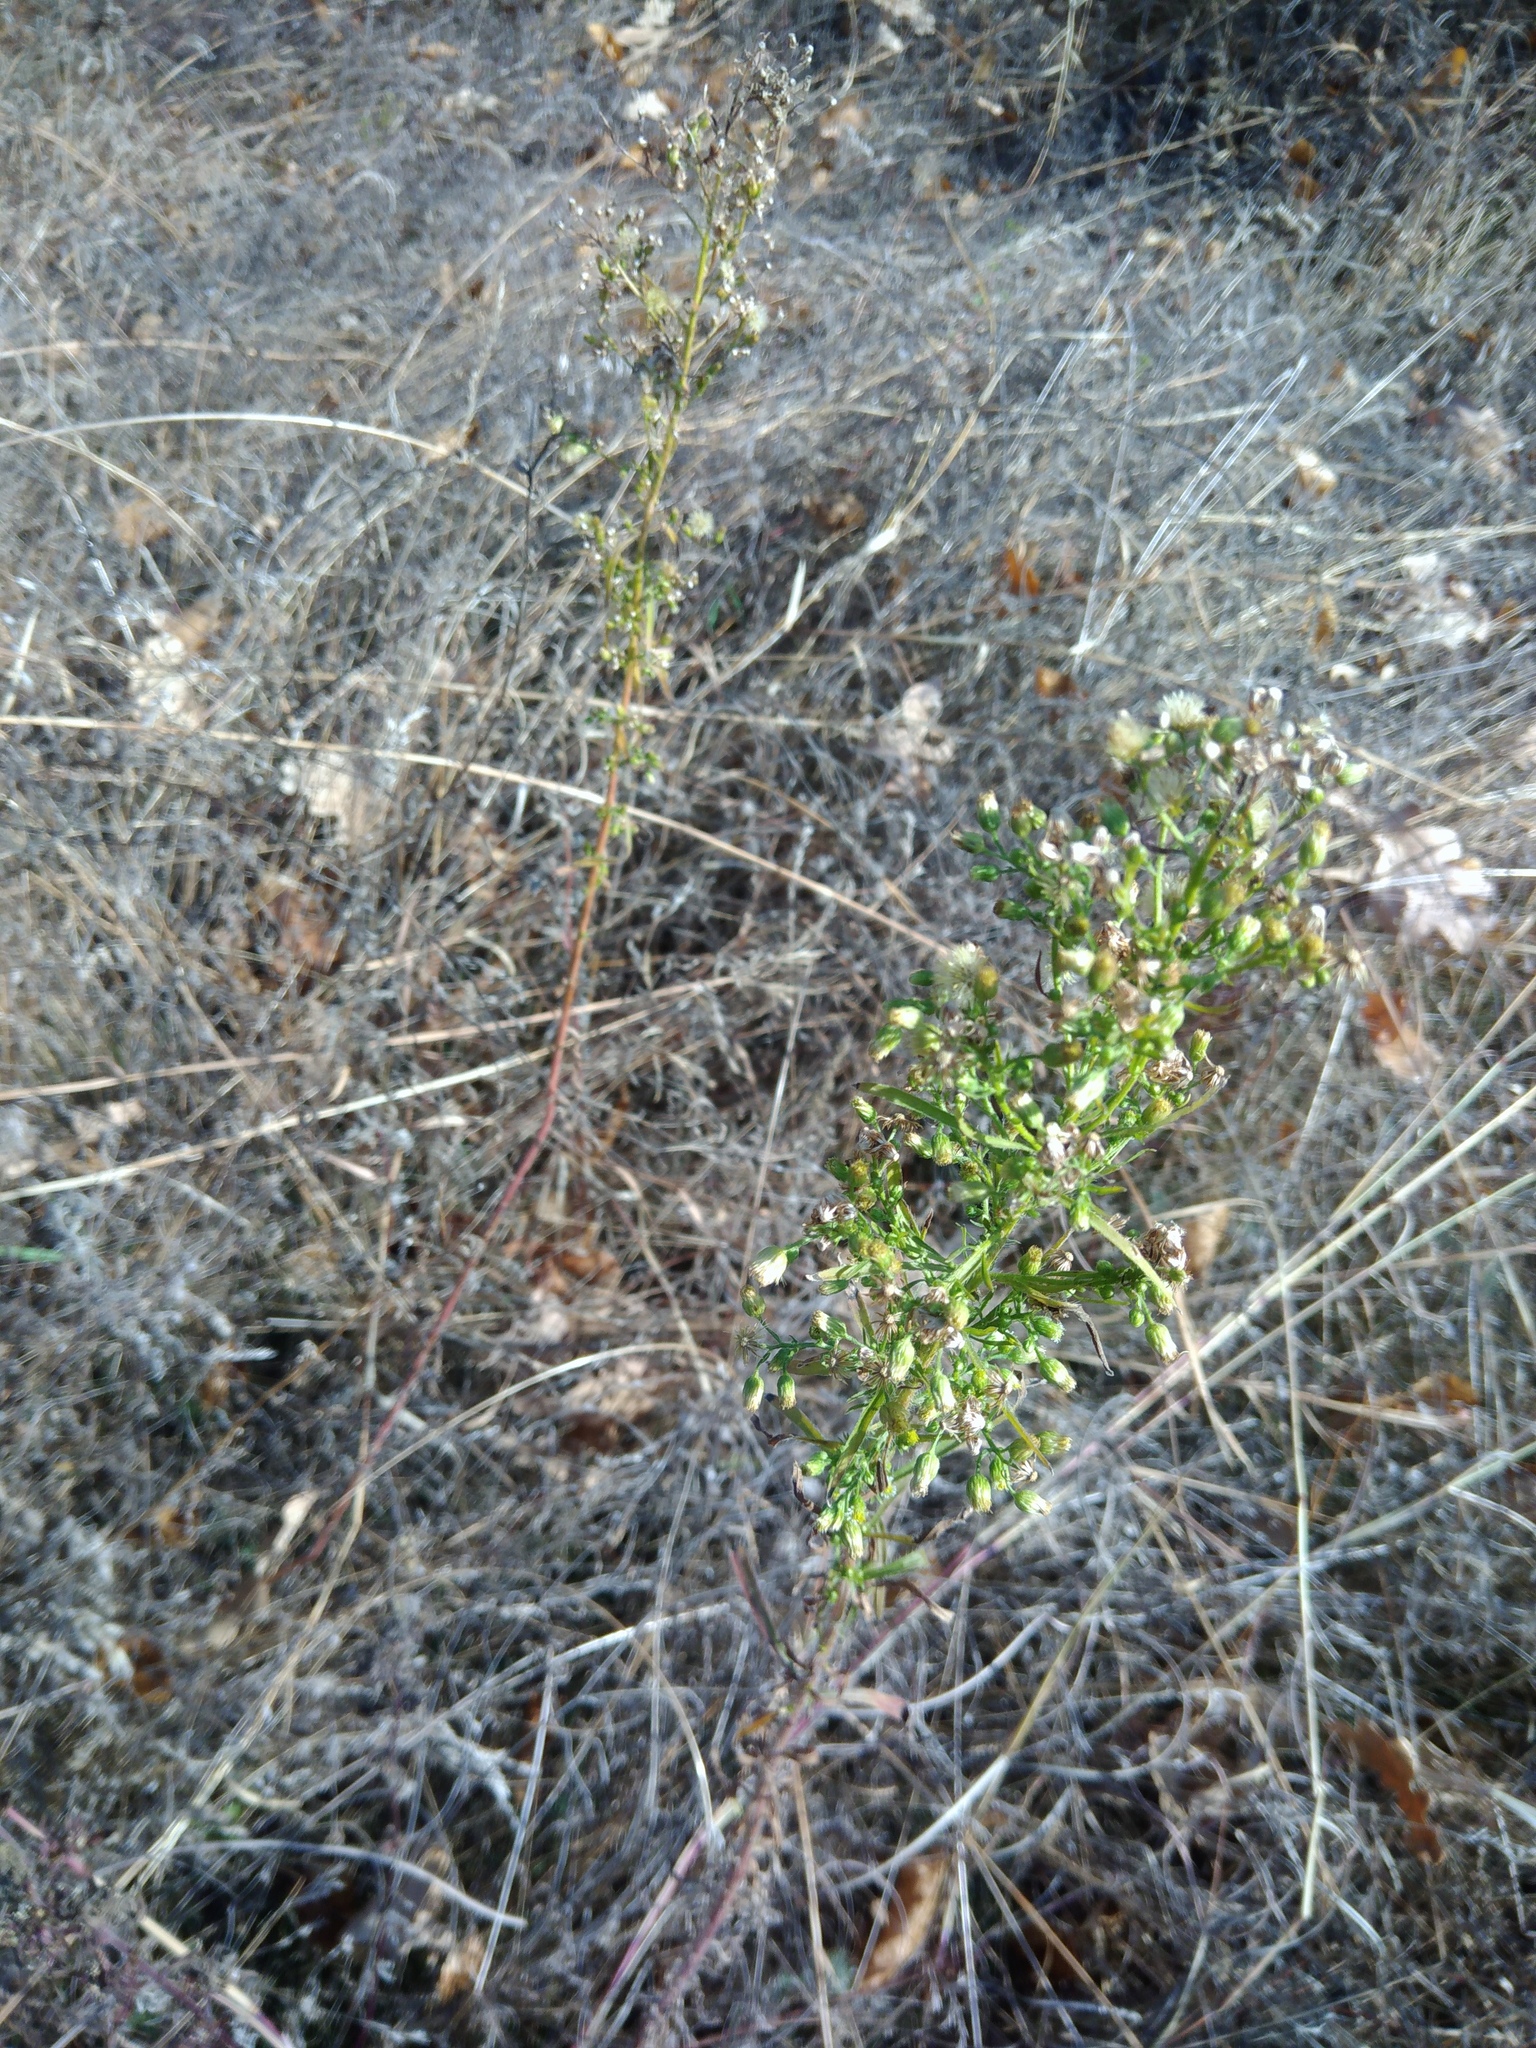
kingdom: Plantae
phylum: Tracheophyta
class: Magnoliopsida
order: Asterales
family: Asteraceae
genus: Erigeron
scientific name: Erigeron canadensis
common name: Canadian fleabane
